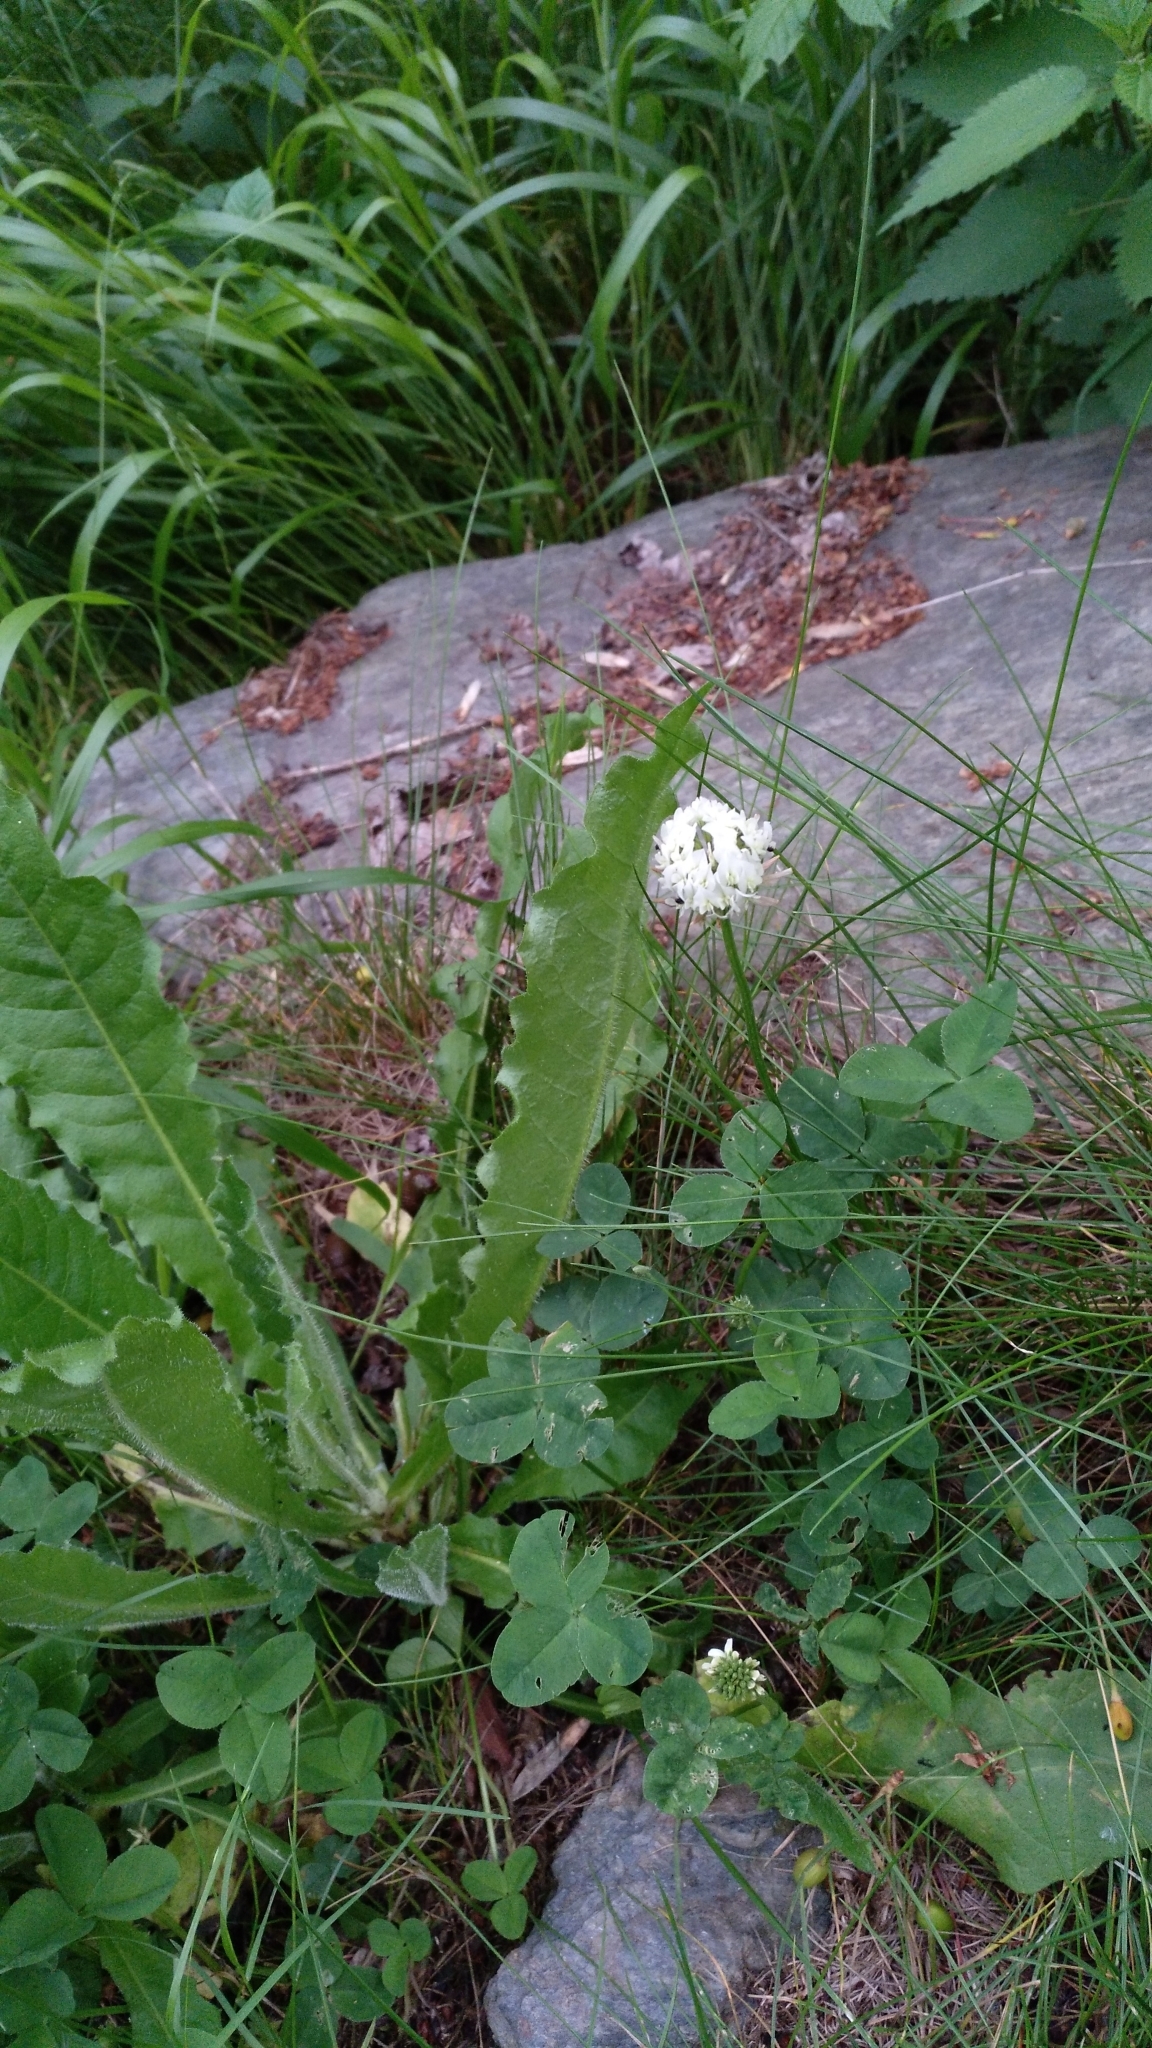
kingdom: Plantae
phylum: Tracheophyta
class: Magnoliopsida
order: Fabales
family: Fabaceae
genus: Trifolium
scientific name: Trifolium repens
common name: White clover
